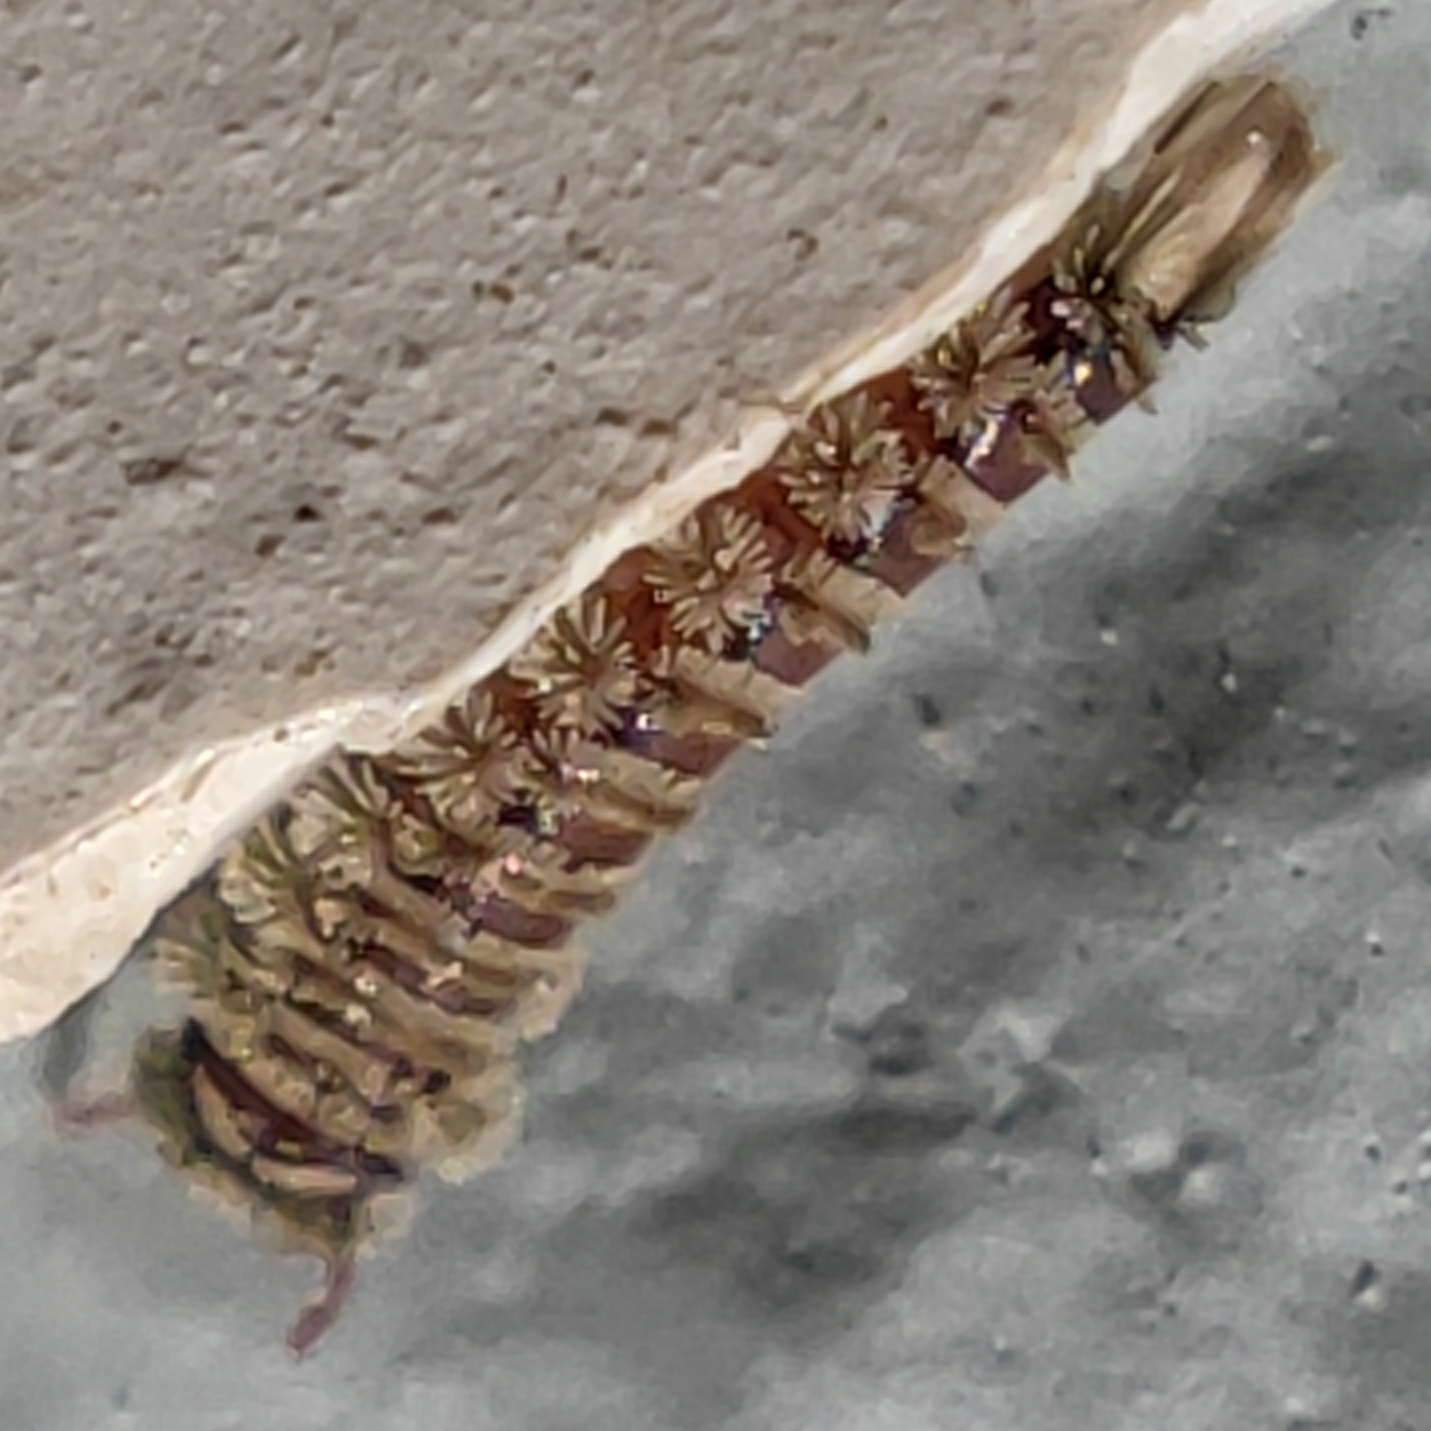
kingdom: Animalia
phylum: Arthropoda
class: Diplopoda
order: Polyxenida
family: Polyxenidae
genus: Polyxenus
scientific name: Polyxenus lagurus
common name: Bristly millipede
